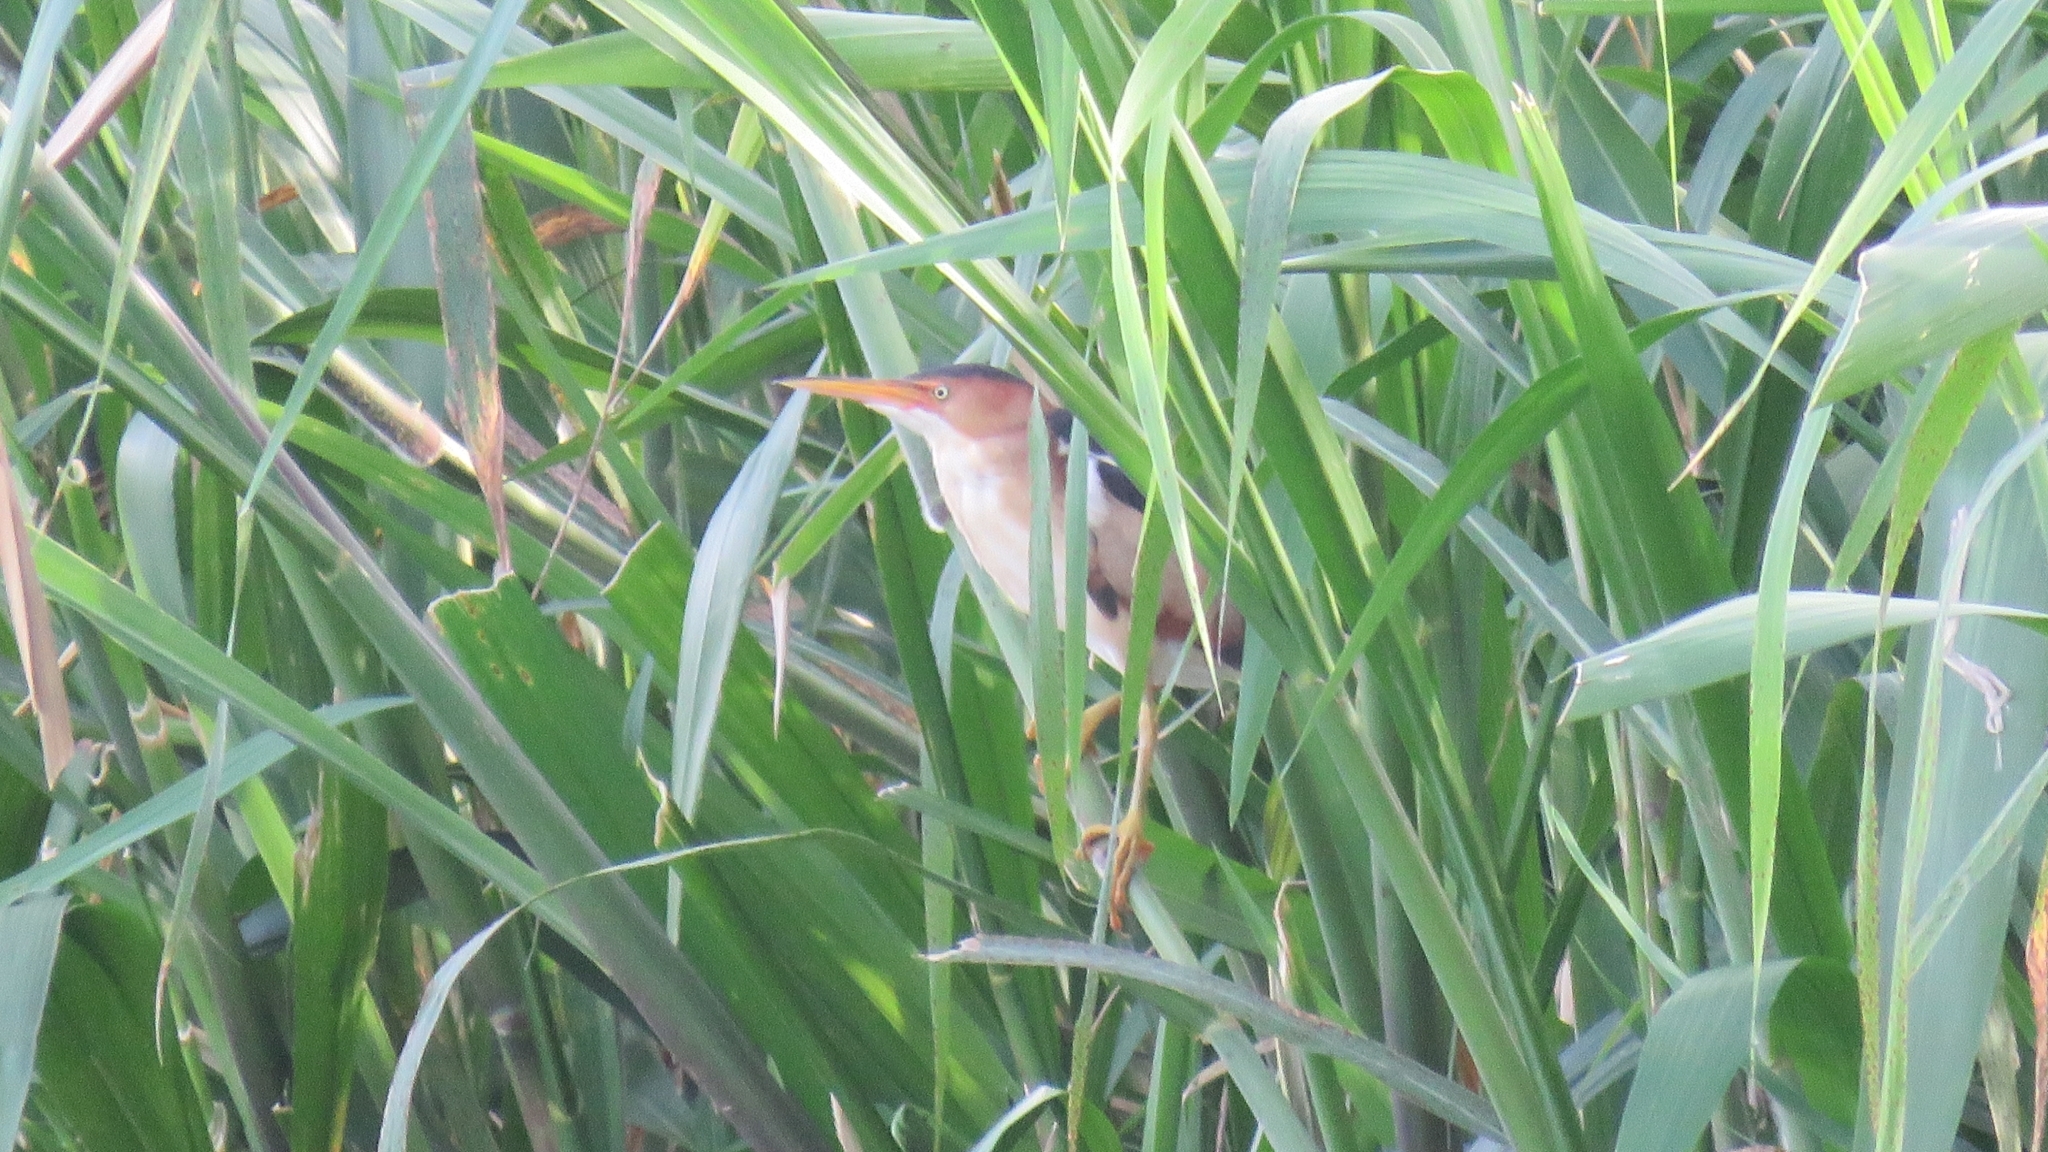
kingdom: Animalia
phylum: Chordata
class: Aves
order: Pelecaniformes
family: Ardeidae
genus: Ixobrychus
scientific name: Ixobrychus exilis
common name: Least bittern
